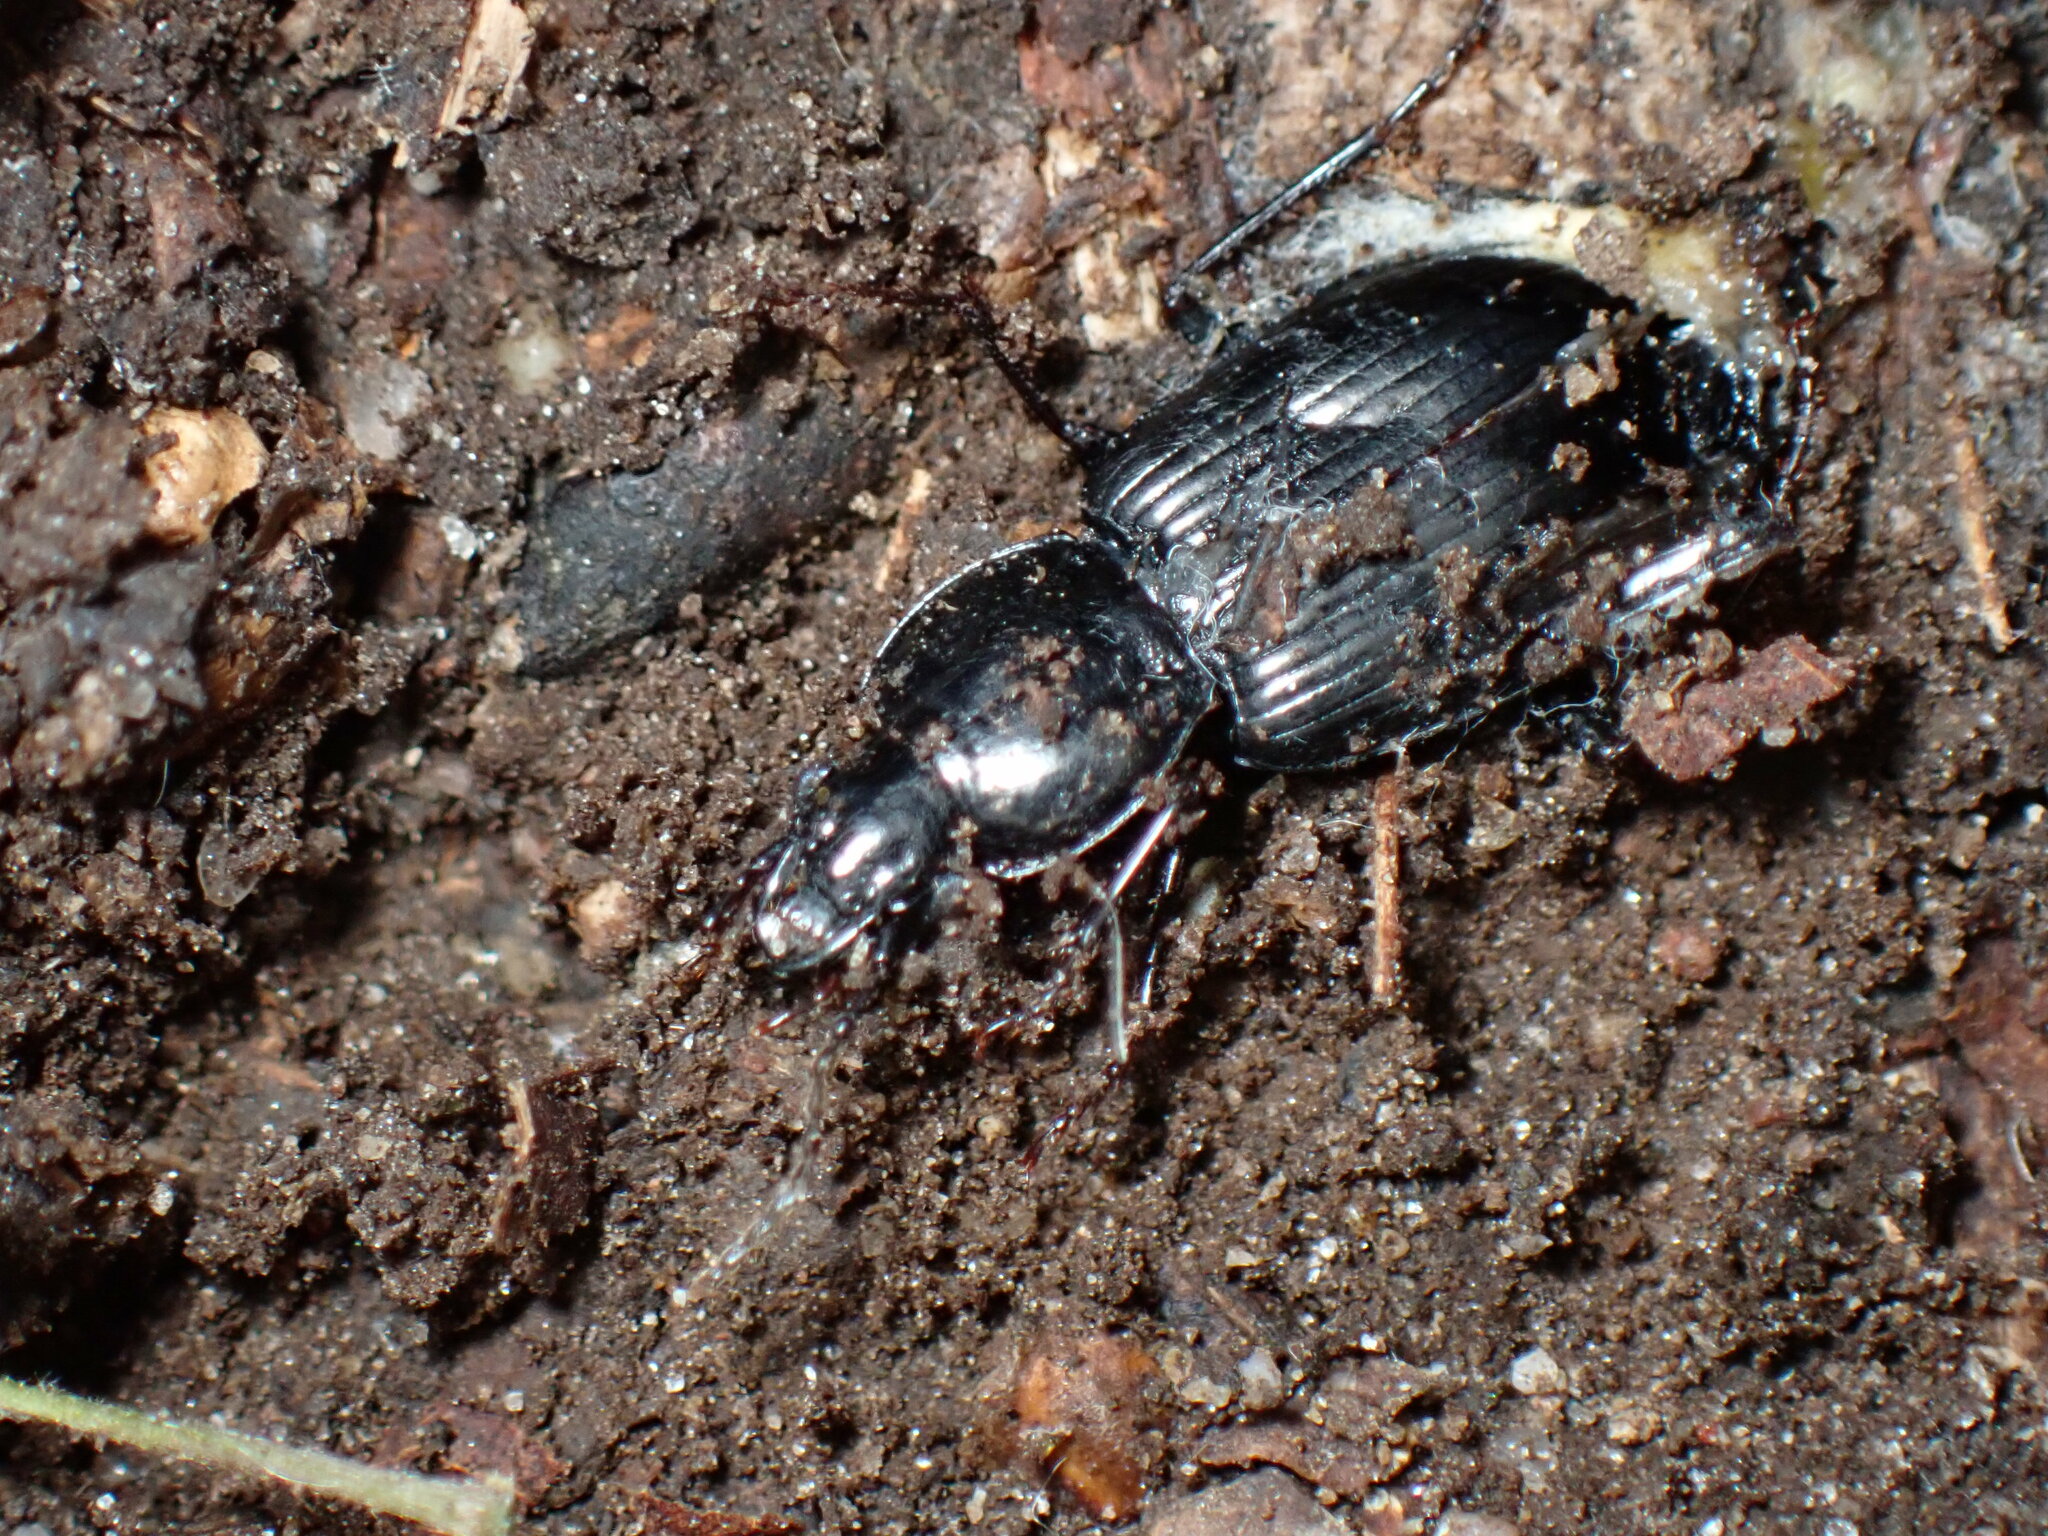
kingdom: Animalia
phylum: Arthropoda
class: Insecta
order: Coleoptera
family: Carabidae
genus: Pterostichus
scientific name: Pterostichus mutus
